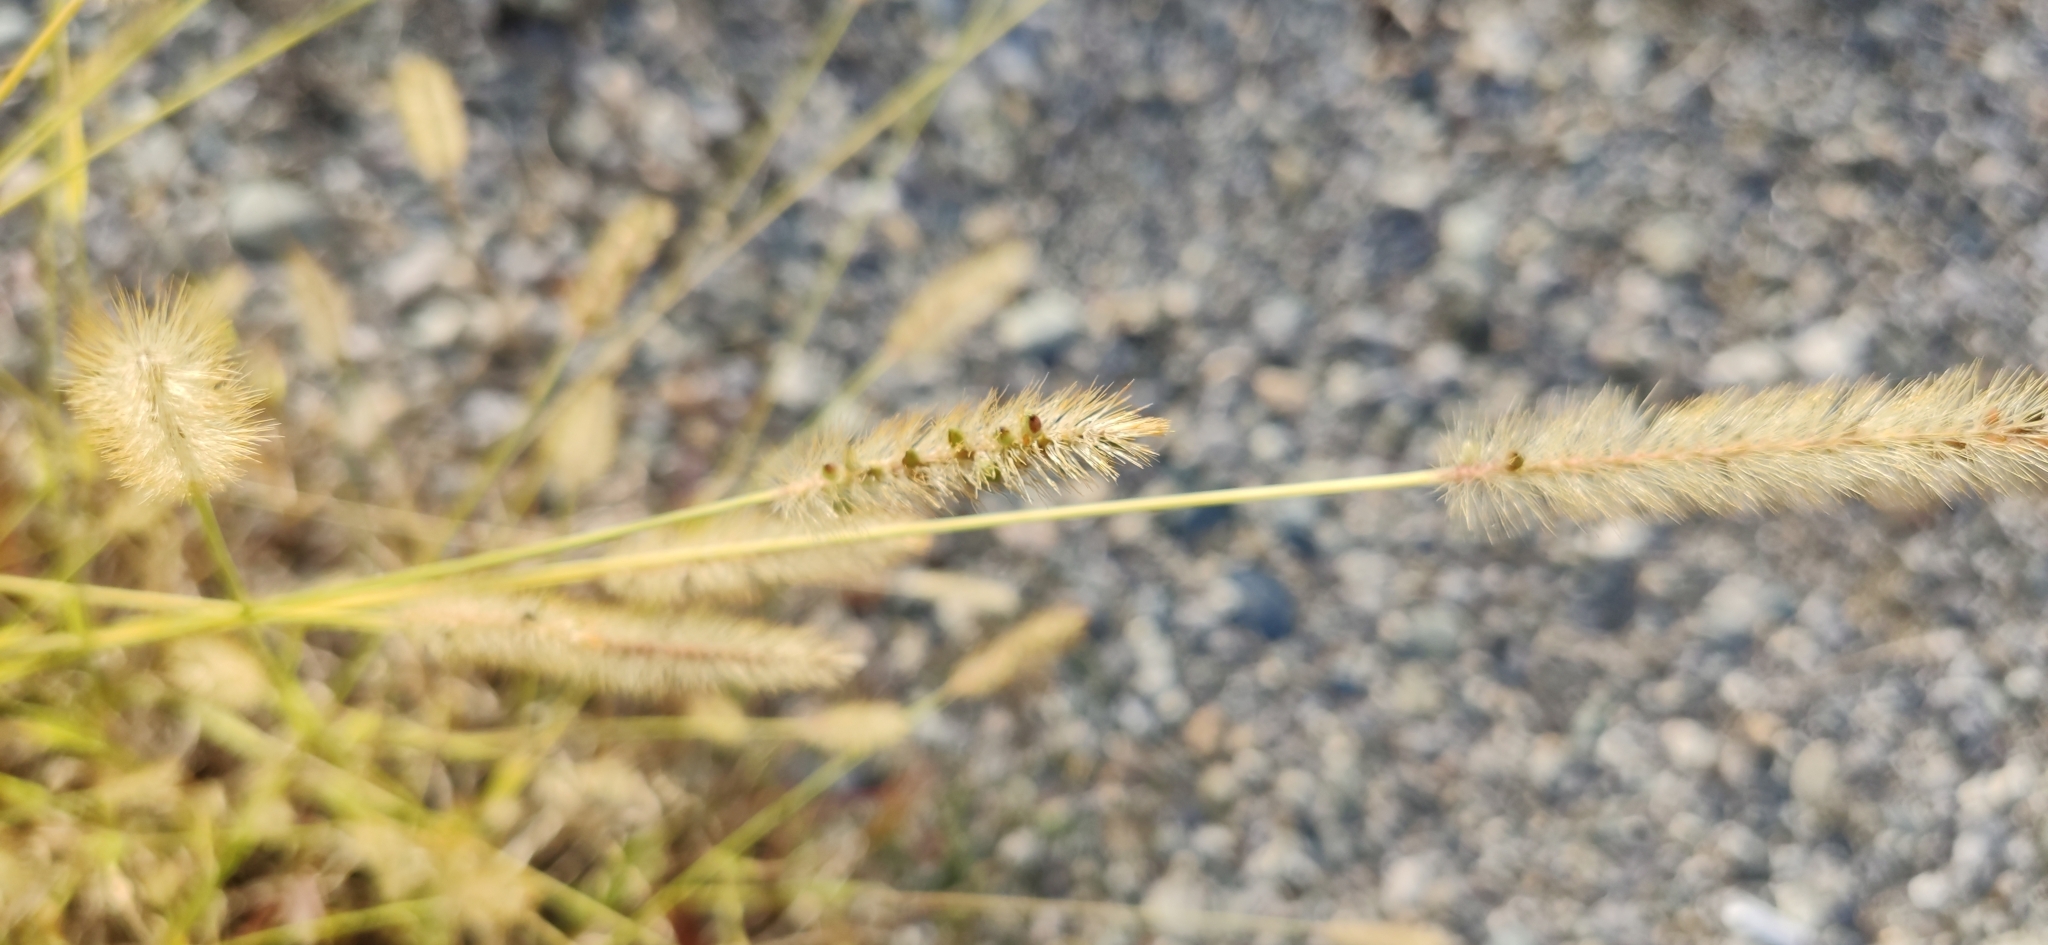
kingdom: Plantae
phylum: Tracheophyta
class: Liliopsida
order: Poales
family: Poaceae
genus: Setaria
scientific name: Setaria pumila
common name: Yellow bristle-grass
